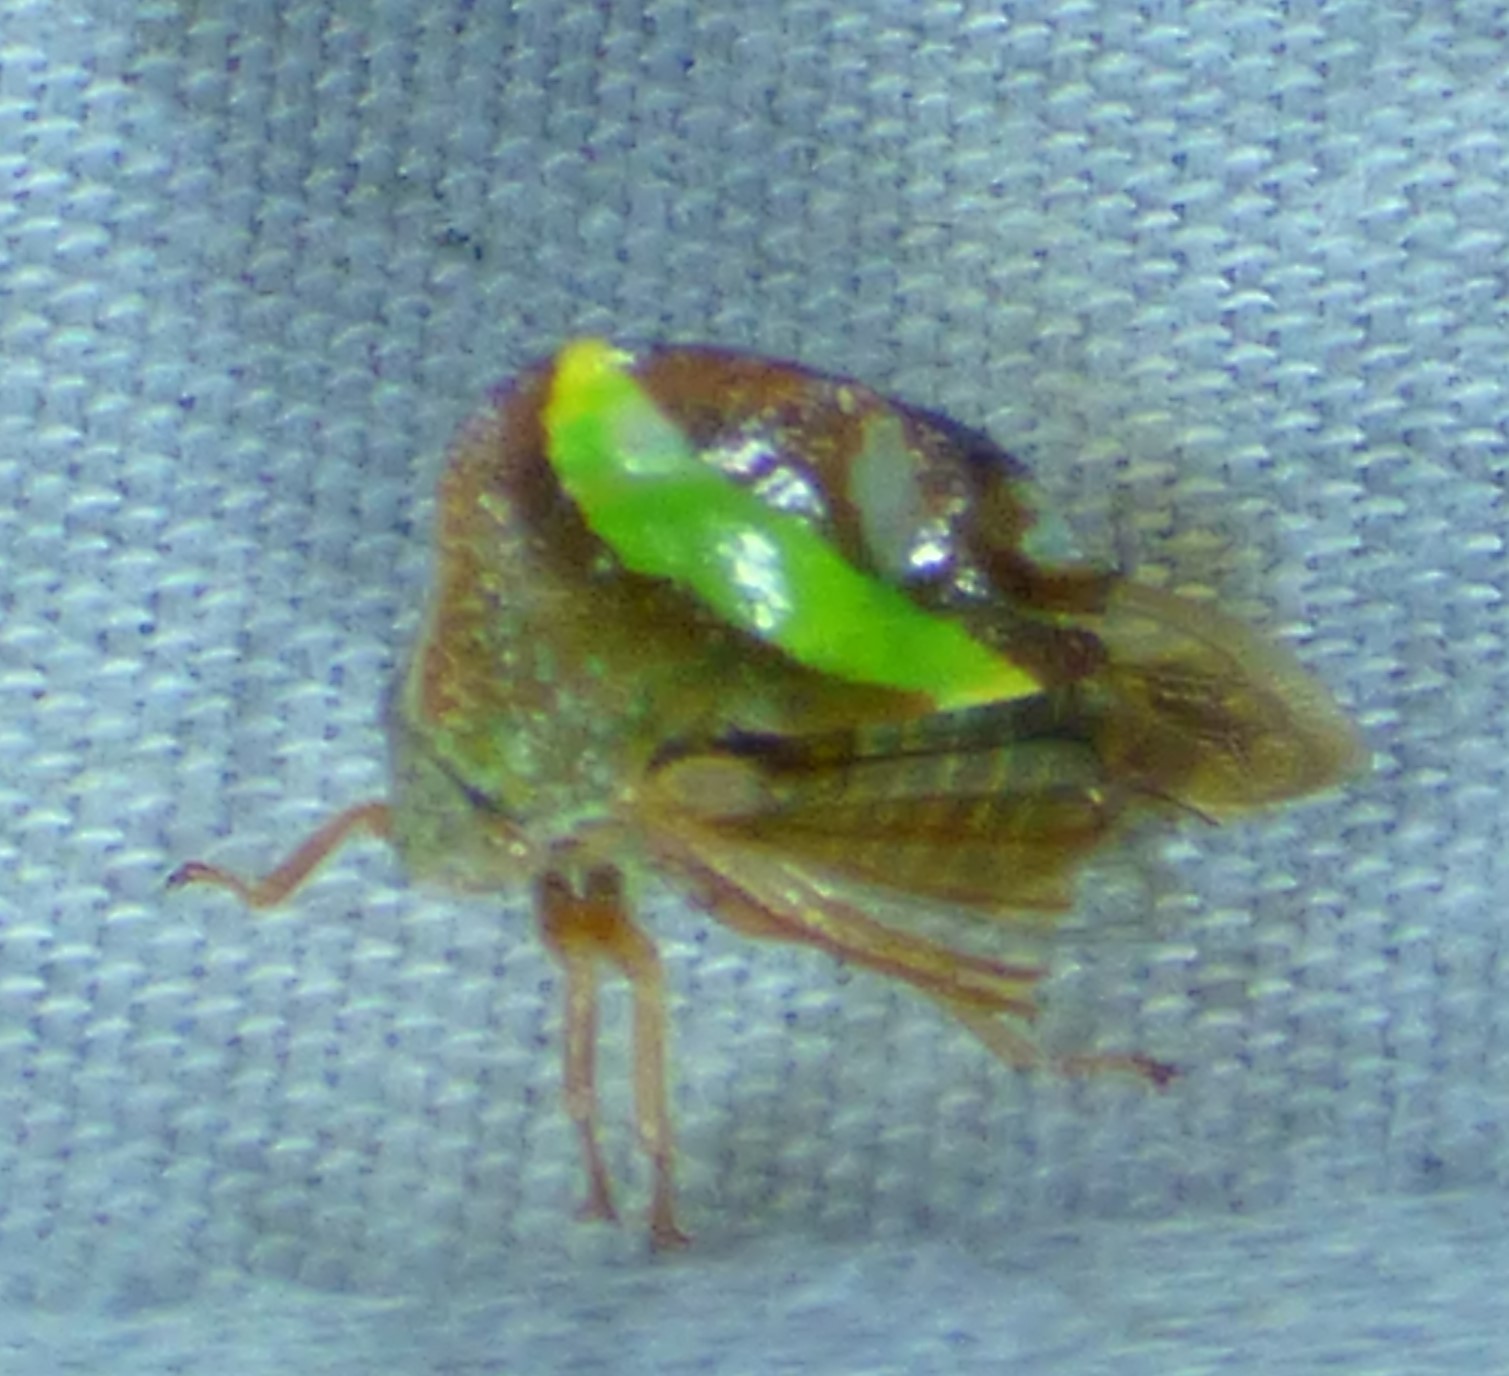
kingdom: Animalia
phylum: Arthropoda
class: Insecta
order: Hemiptera
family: Membracidae
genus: Smilia
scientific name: Smilia camelus
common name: Camel treehopper
